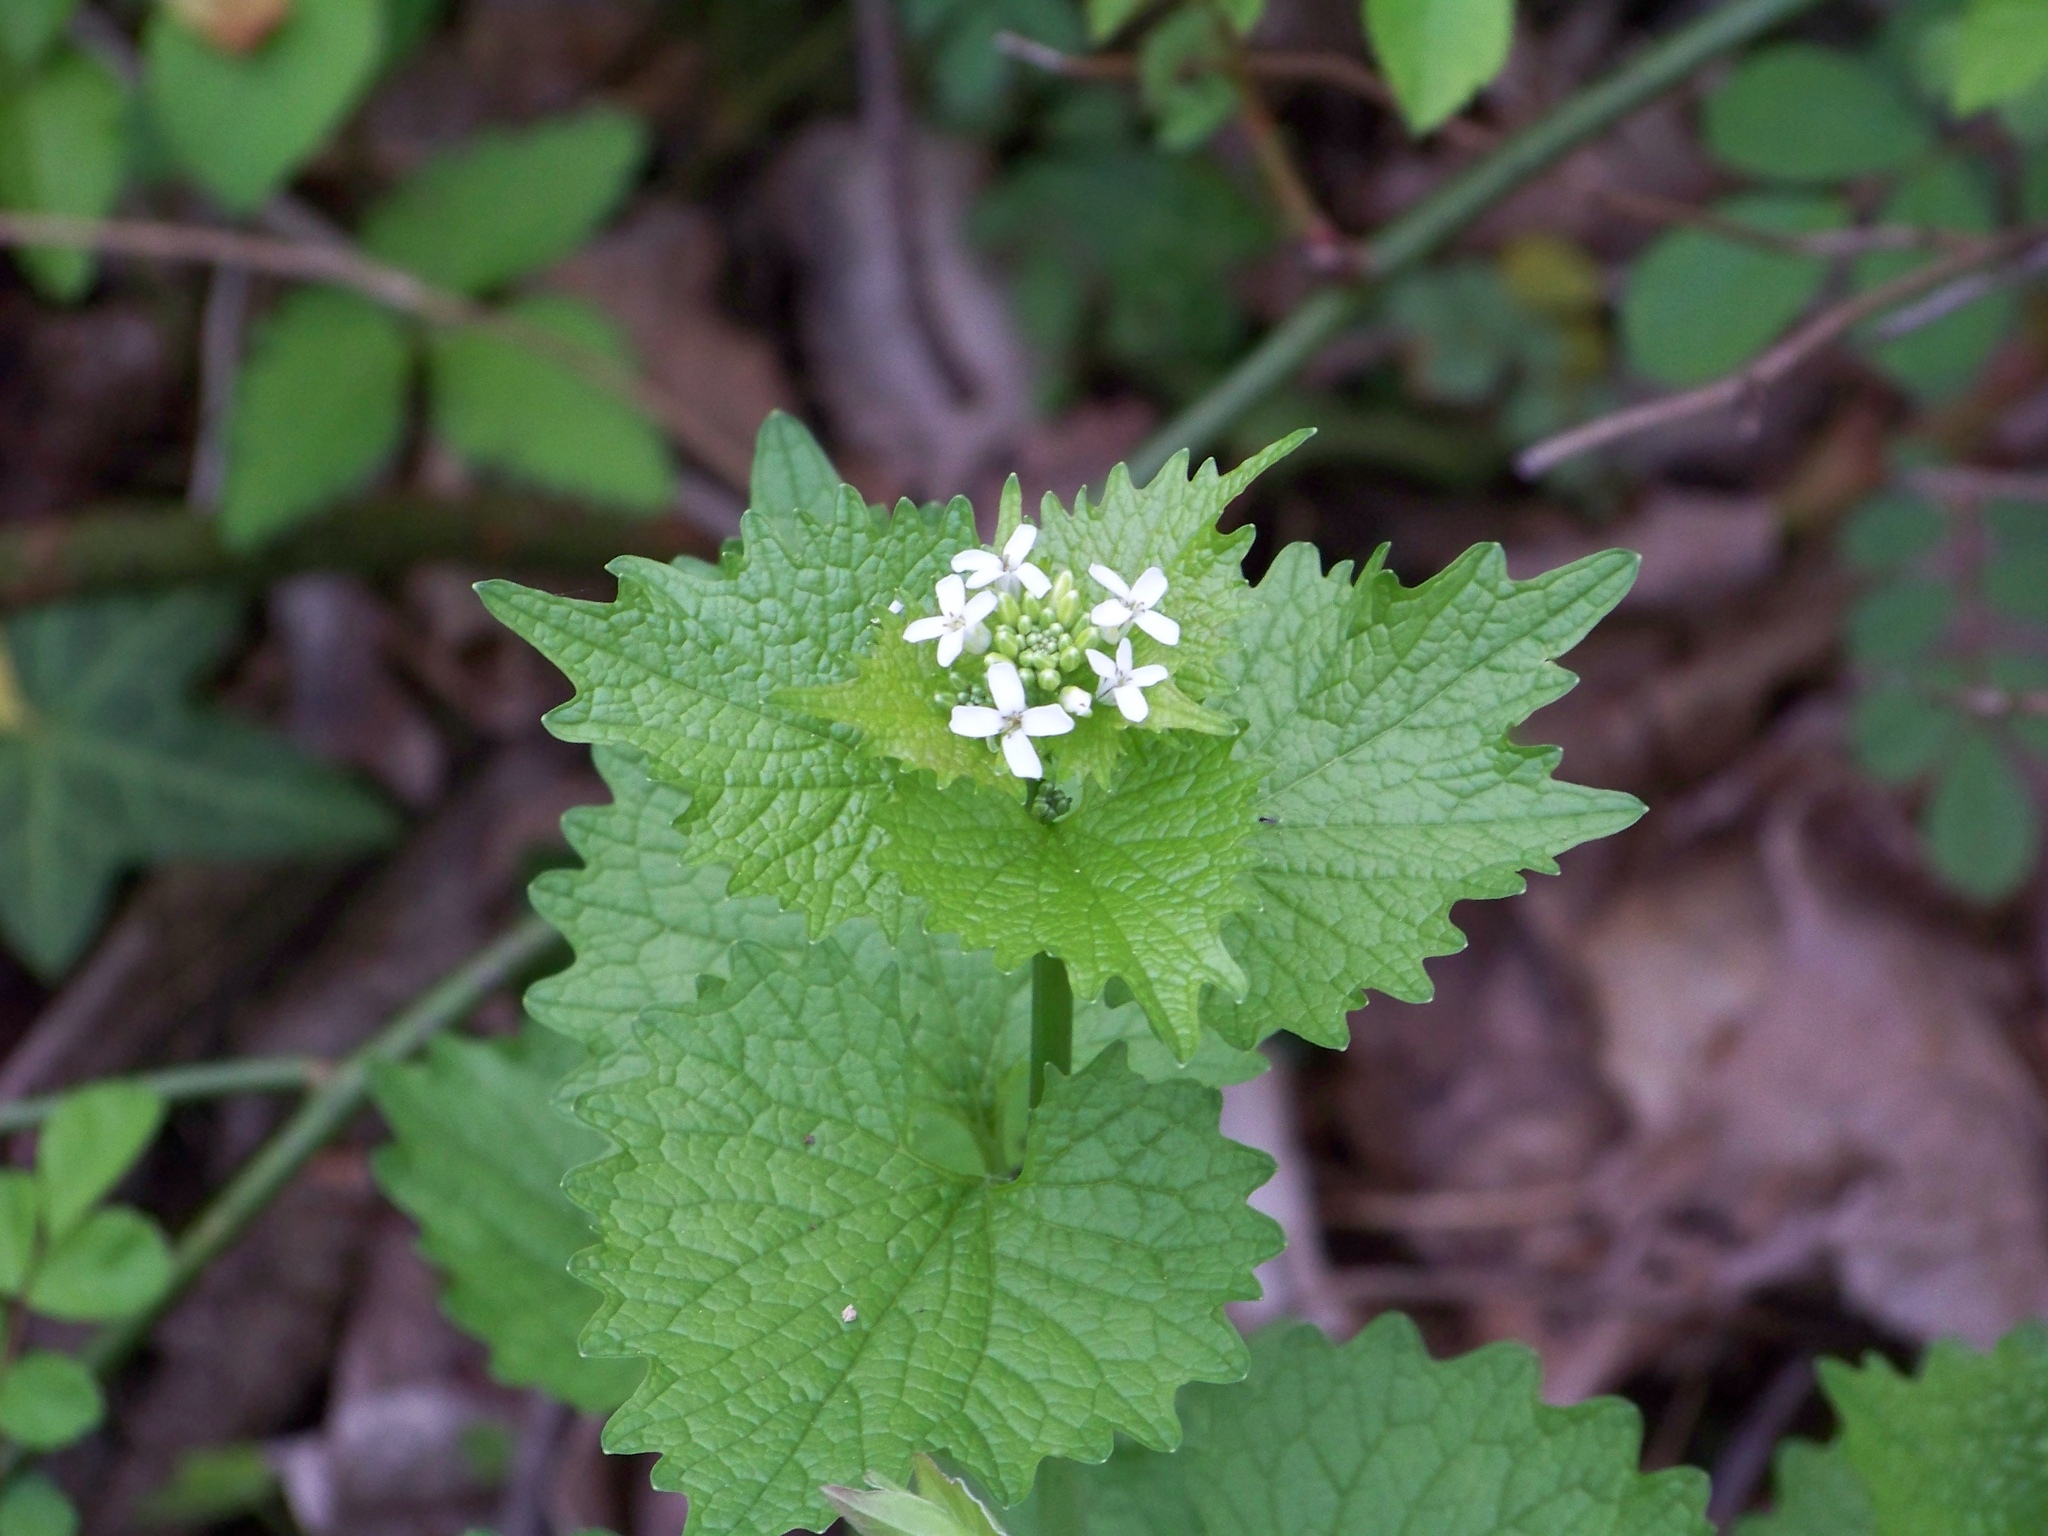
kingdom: Plantae
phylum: Tracheophyta
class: Magnoliopsida
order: Brassicales
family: Brassicaceae
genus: Alliaria
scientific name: Alliaria petiolata
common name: Garlic mustard
